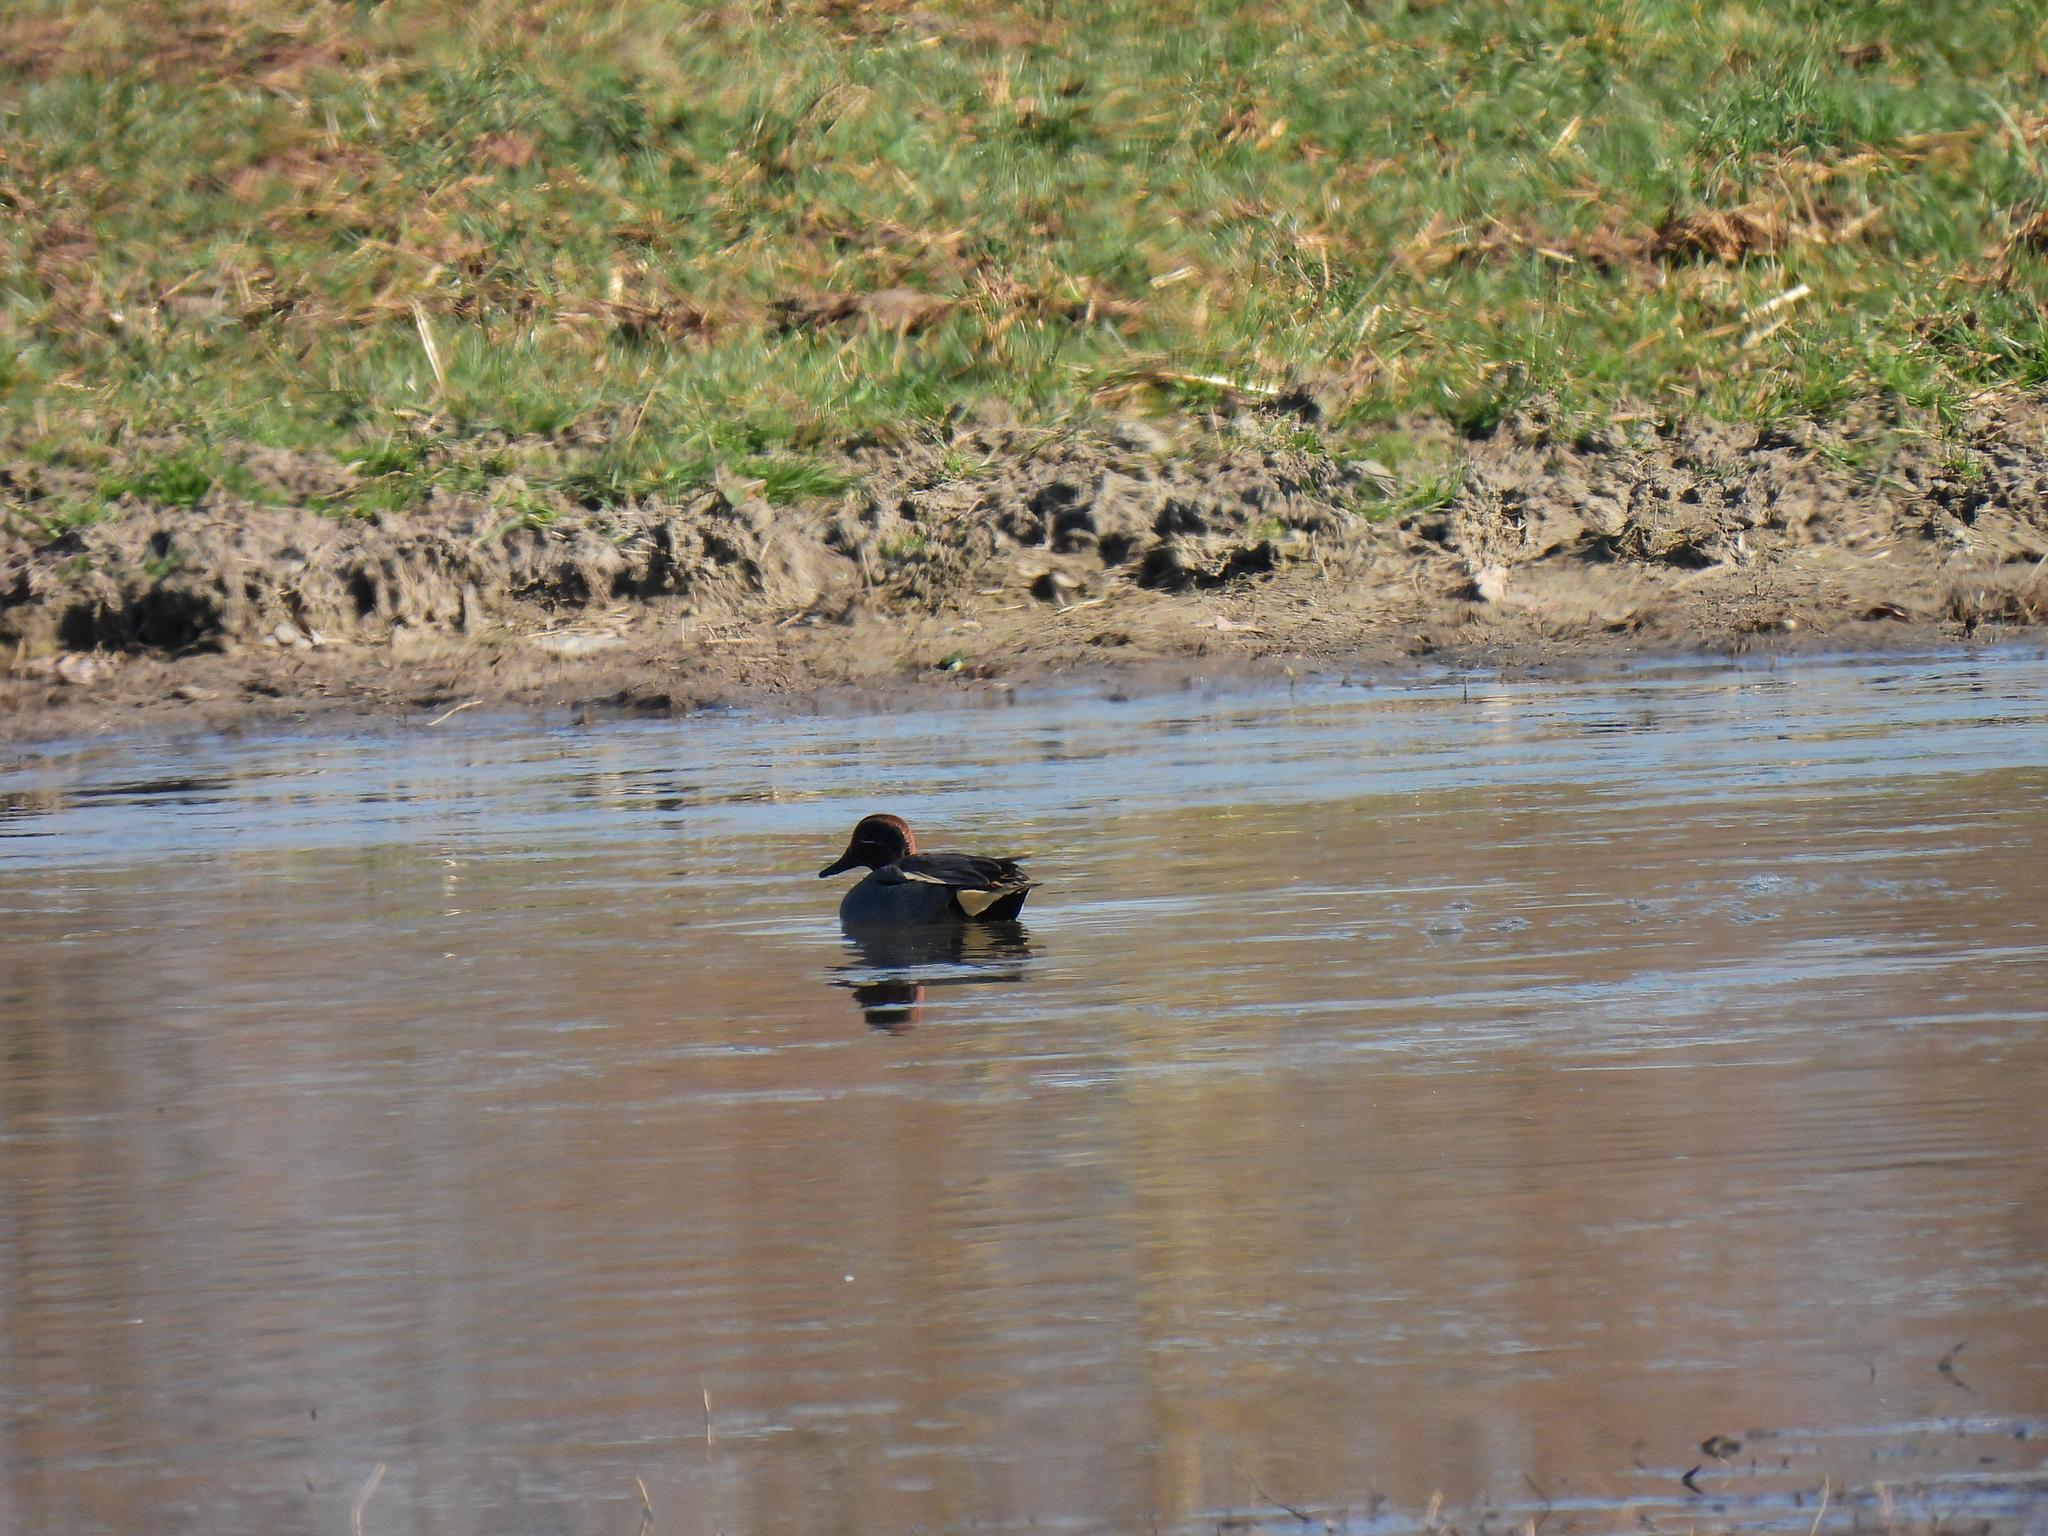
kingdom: Animalia
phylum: Chordata
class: Aves
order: Anseriformes
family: Anatidae
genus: Anas
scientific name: Anas crecca
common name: Eurasian teal
